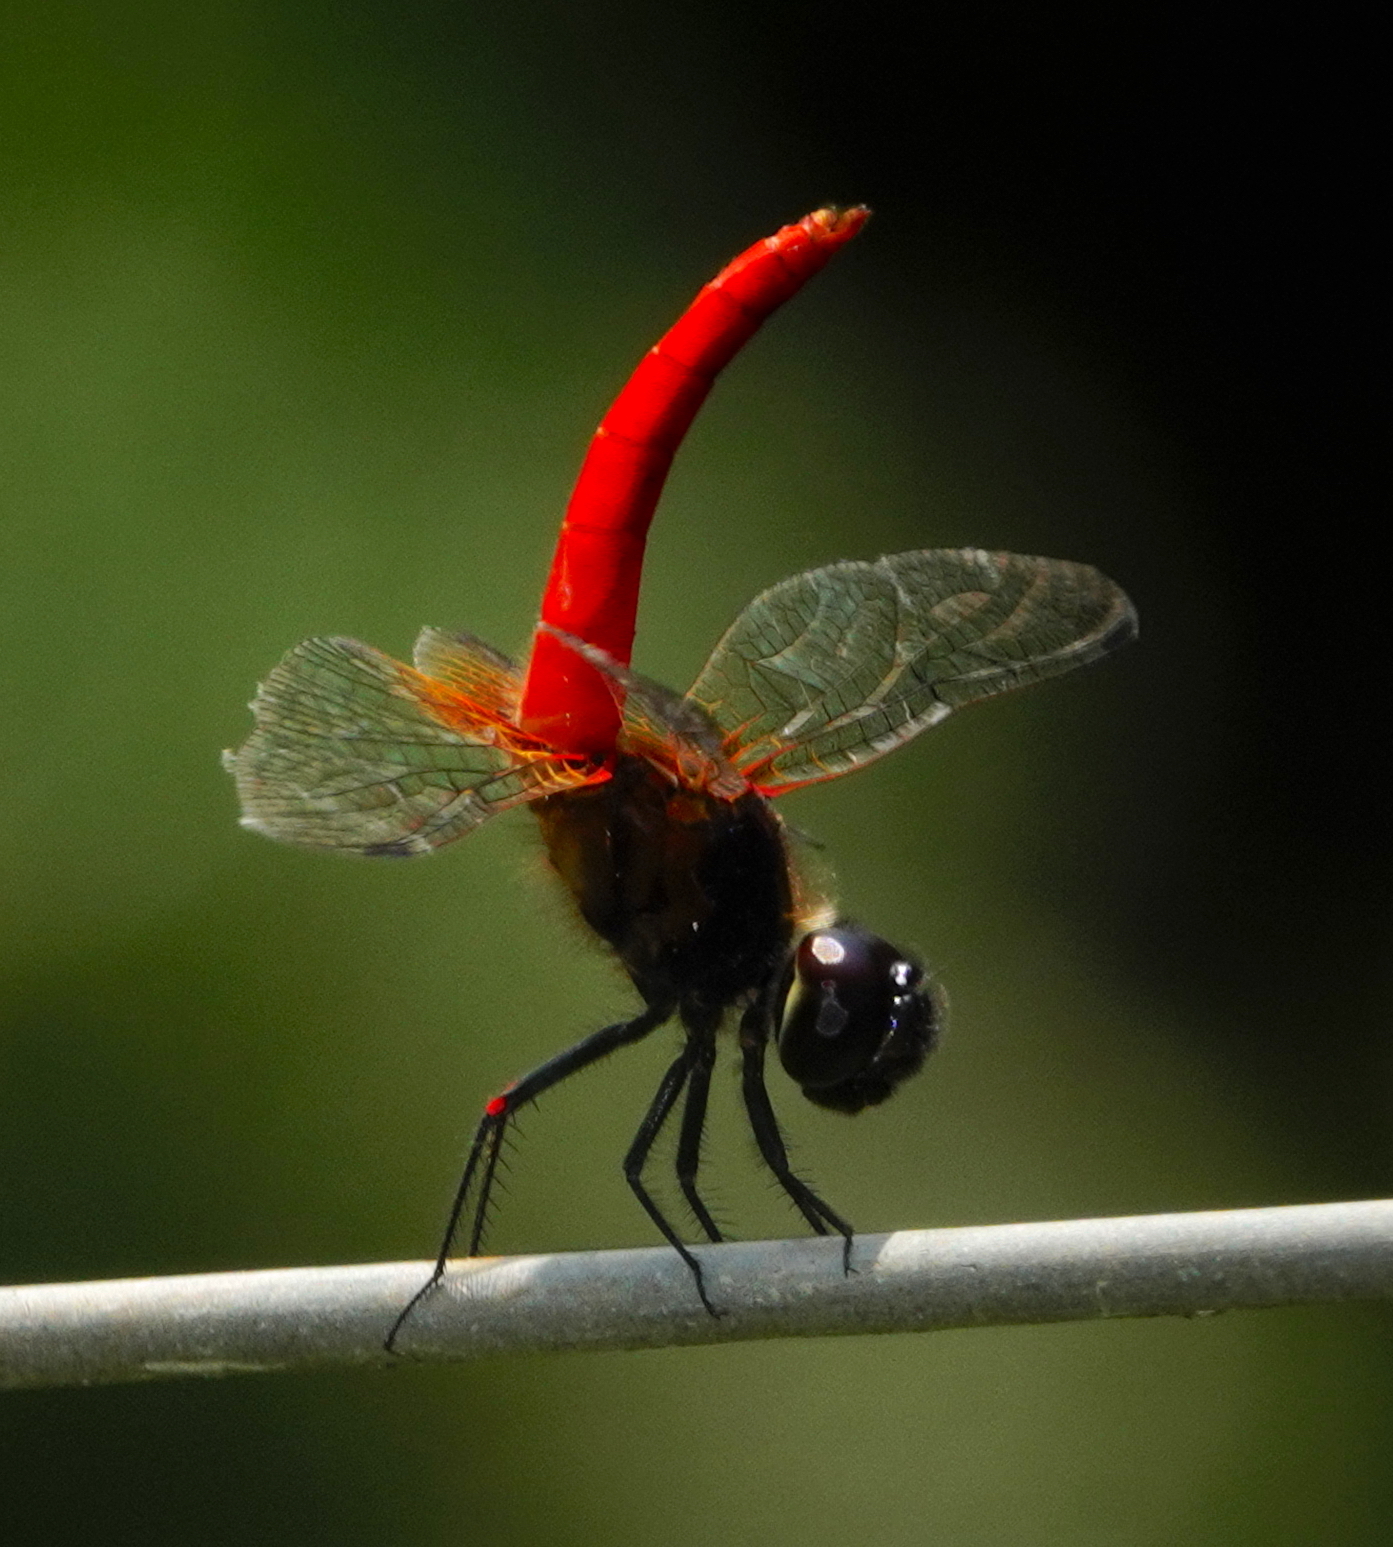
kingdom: Animalia
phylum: Arthropoda
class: Insecta
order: Odonata
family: Libellulidae
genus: Aethriamanta
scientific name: Aethriamanta brevipennis
